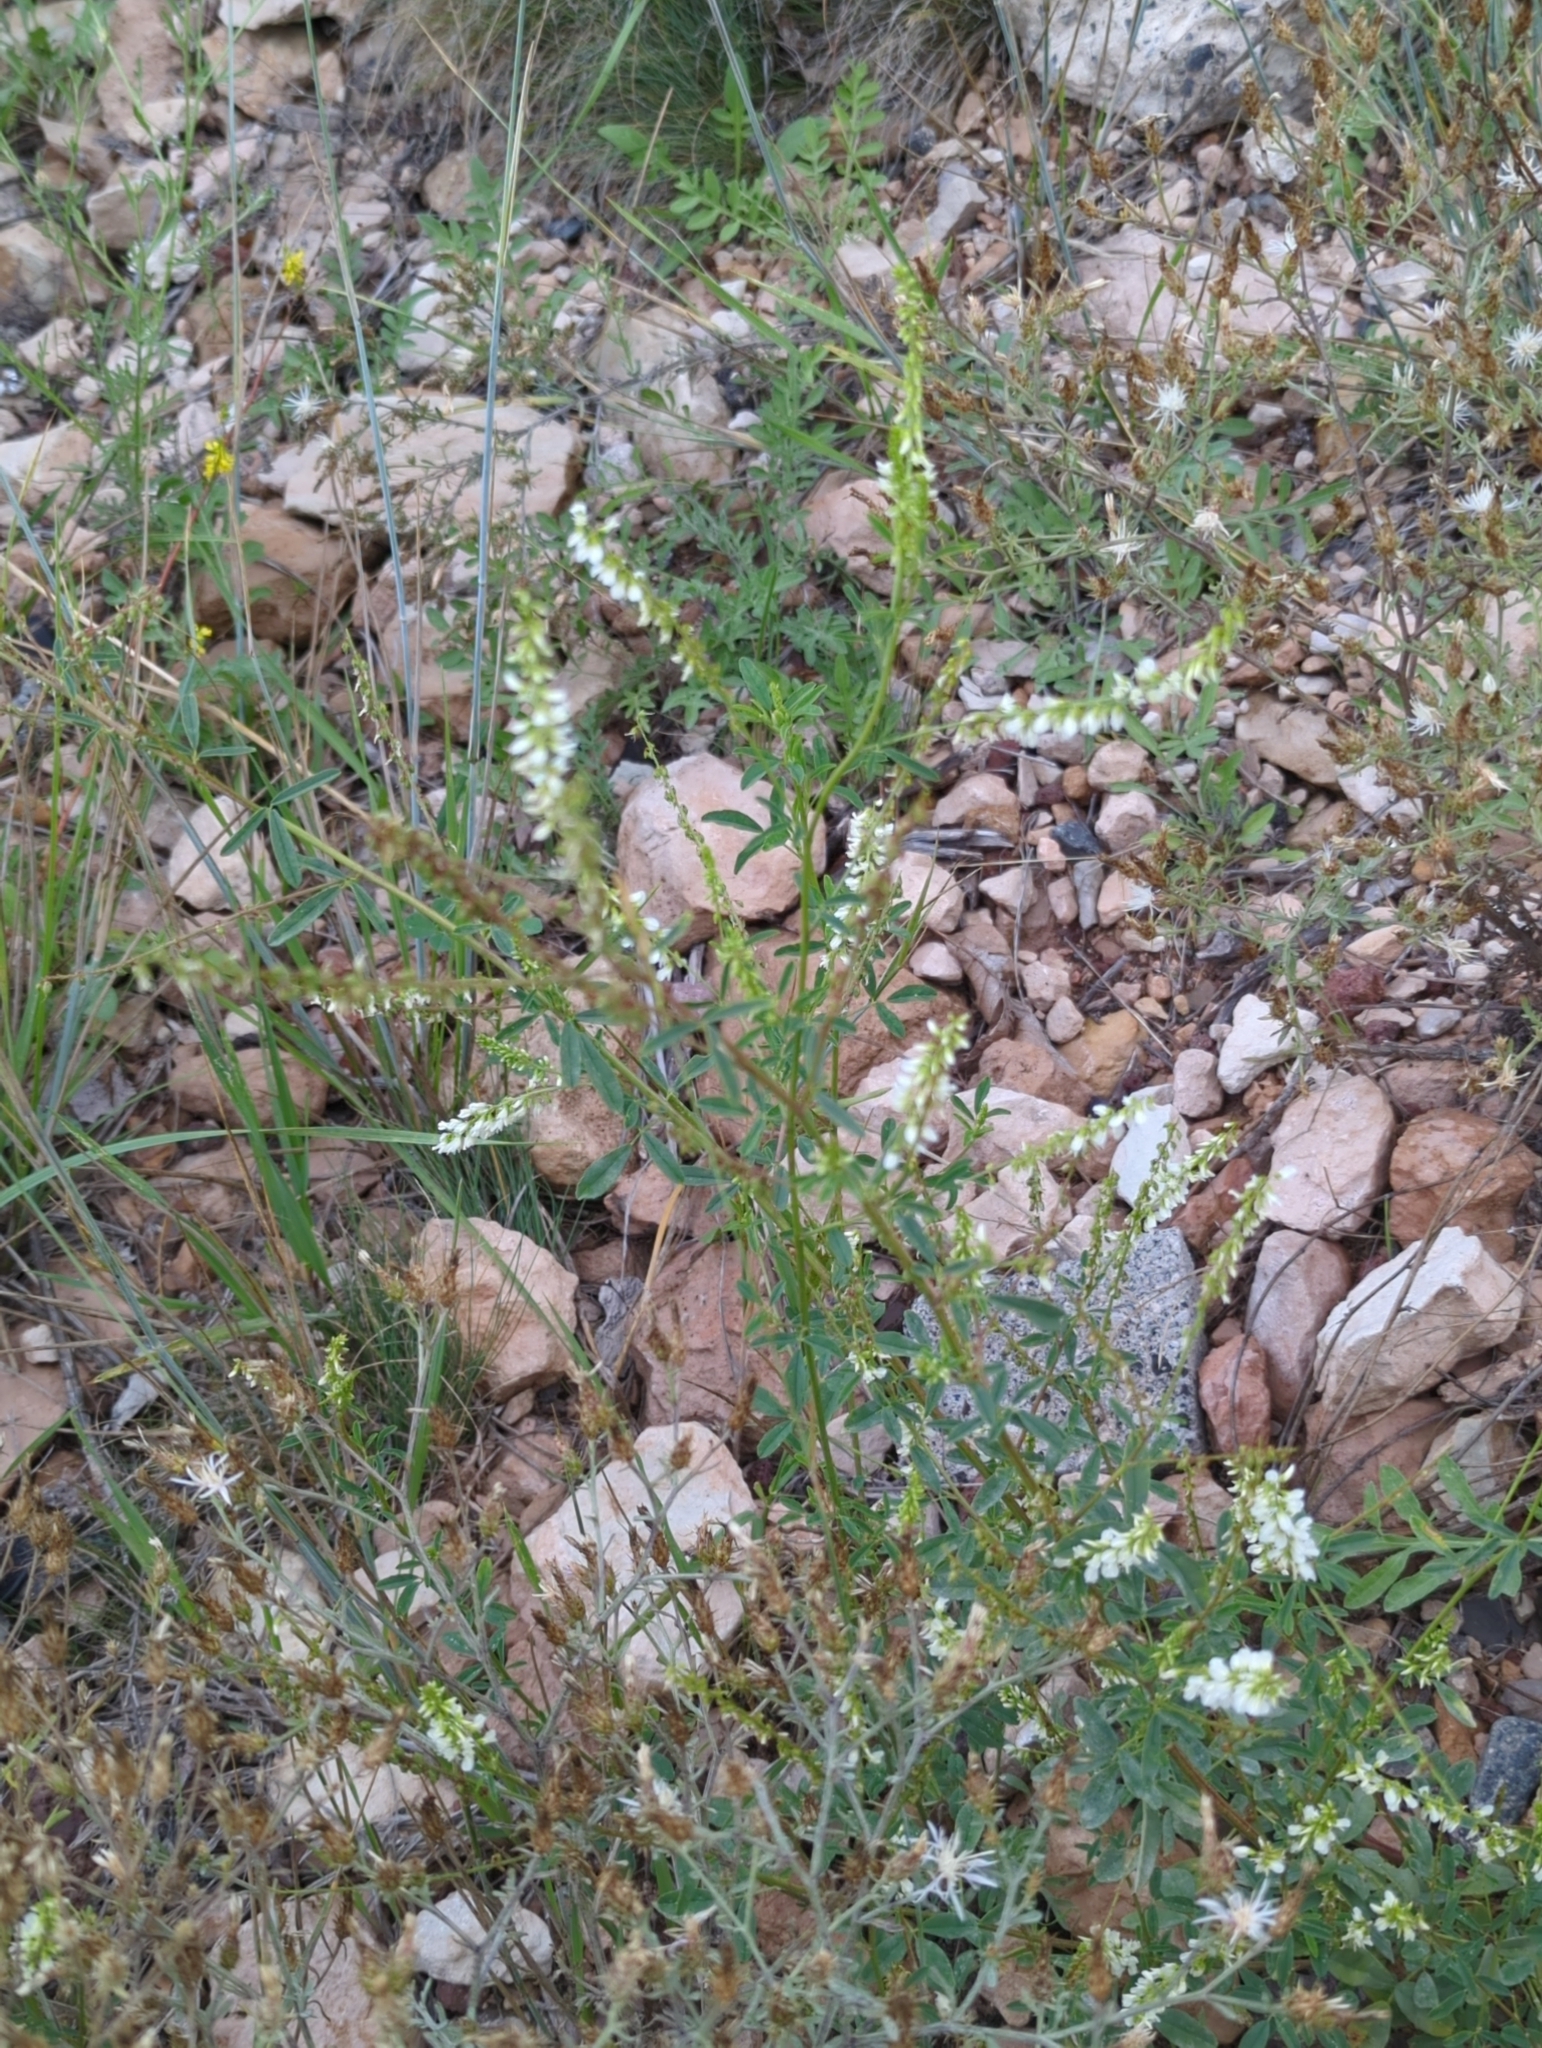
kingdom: Plantae
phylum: Tracheophyta
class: Magnoliopsida
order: Fabales
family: Fabaceae
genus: Melilotus
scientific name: Melilotus albus
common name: White melilot
